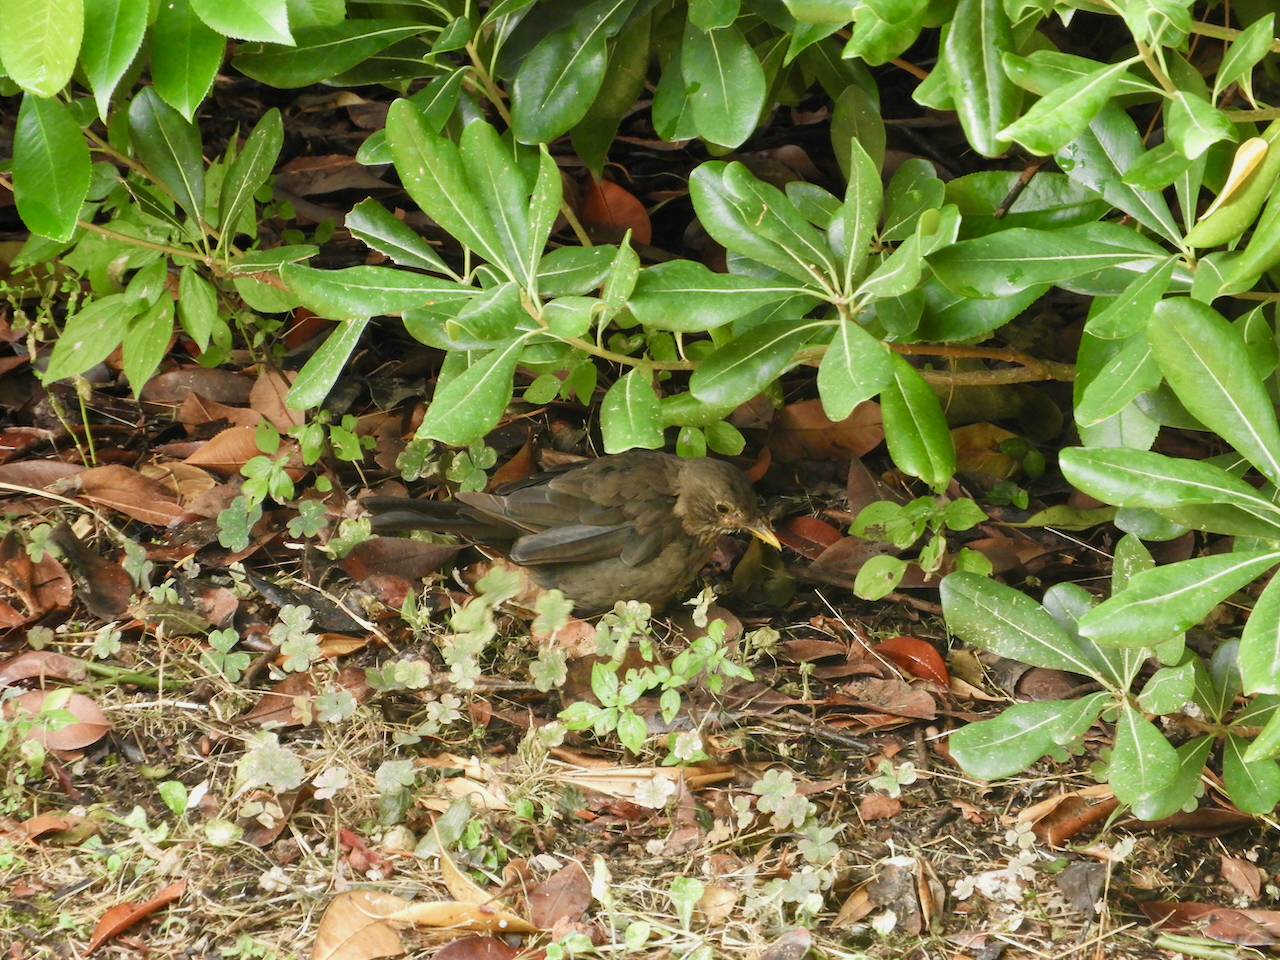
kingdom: Animalia
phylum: Chordata
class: Aves
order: Passeriformes
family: Turdidae
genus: Turdus
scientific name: Turdus merula
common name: Common blackbird
